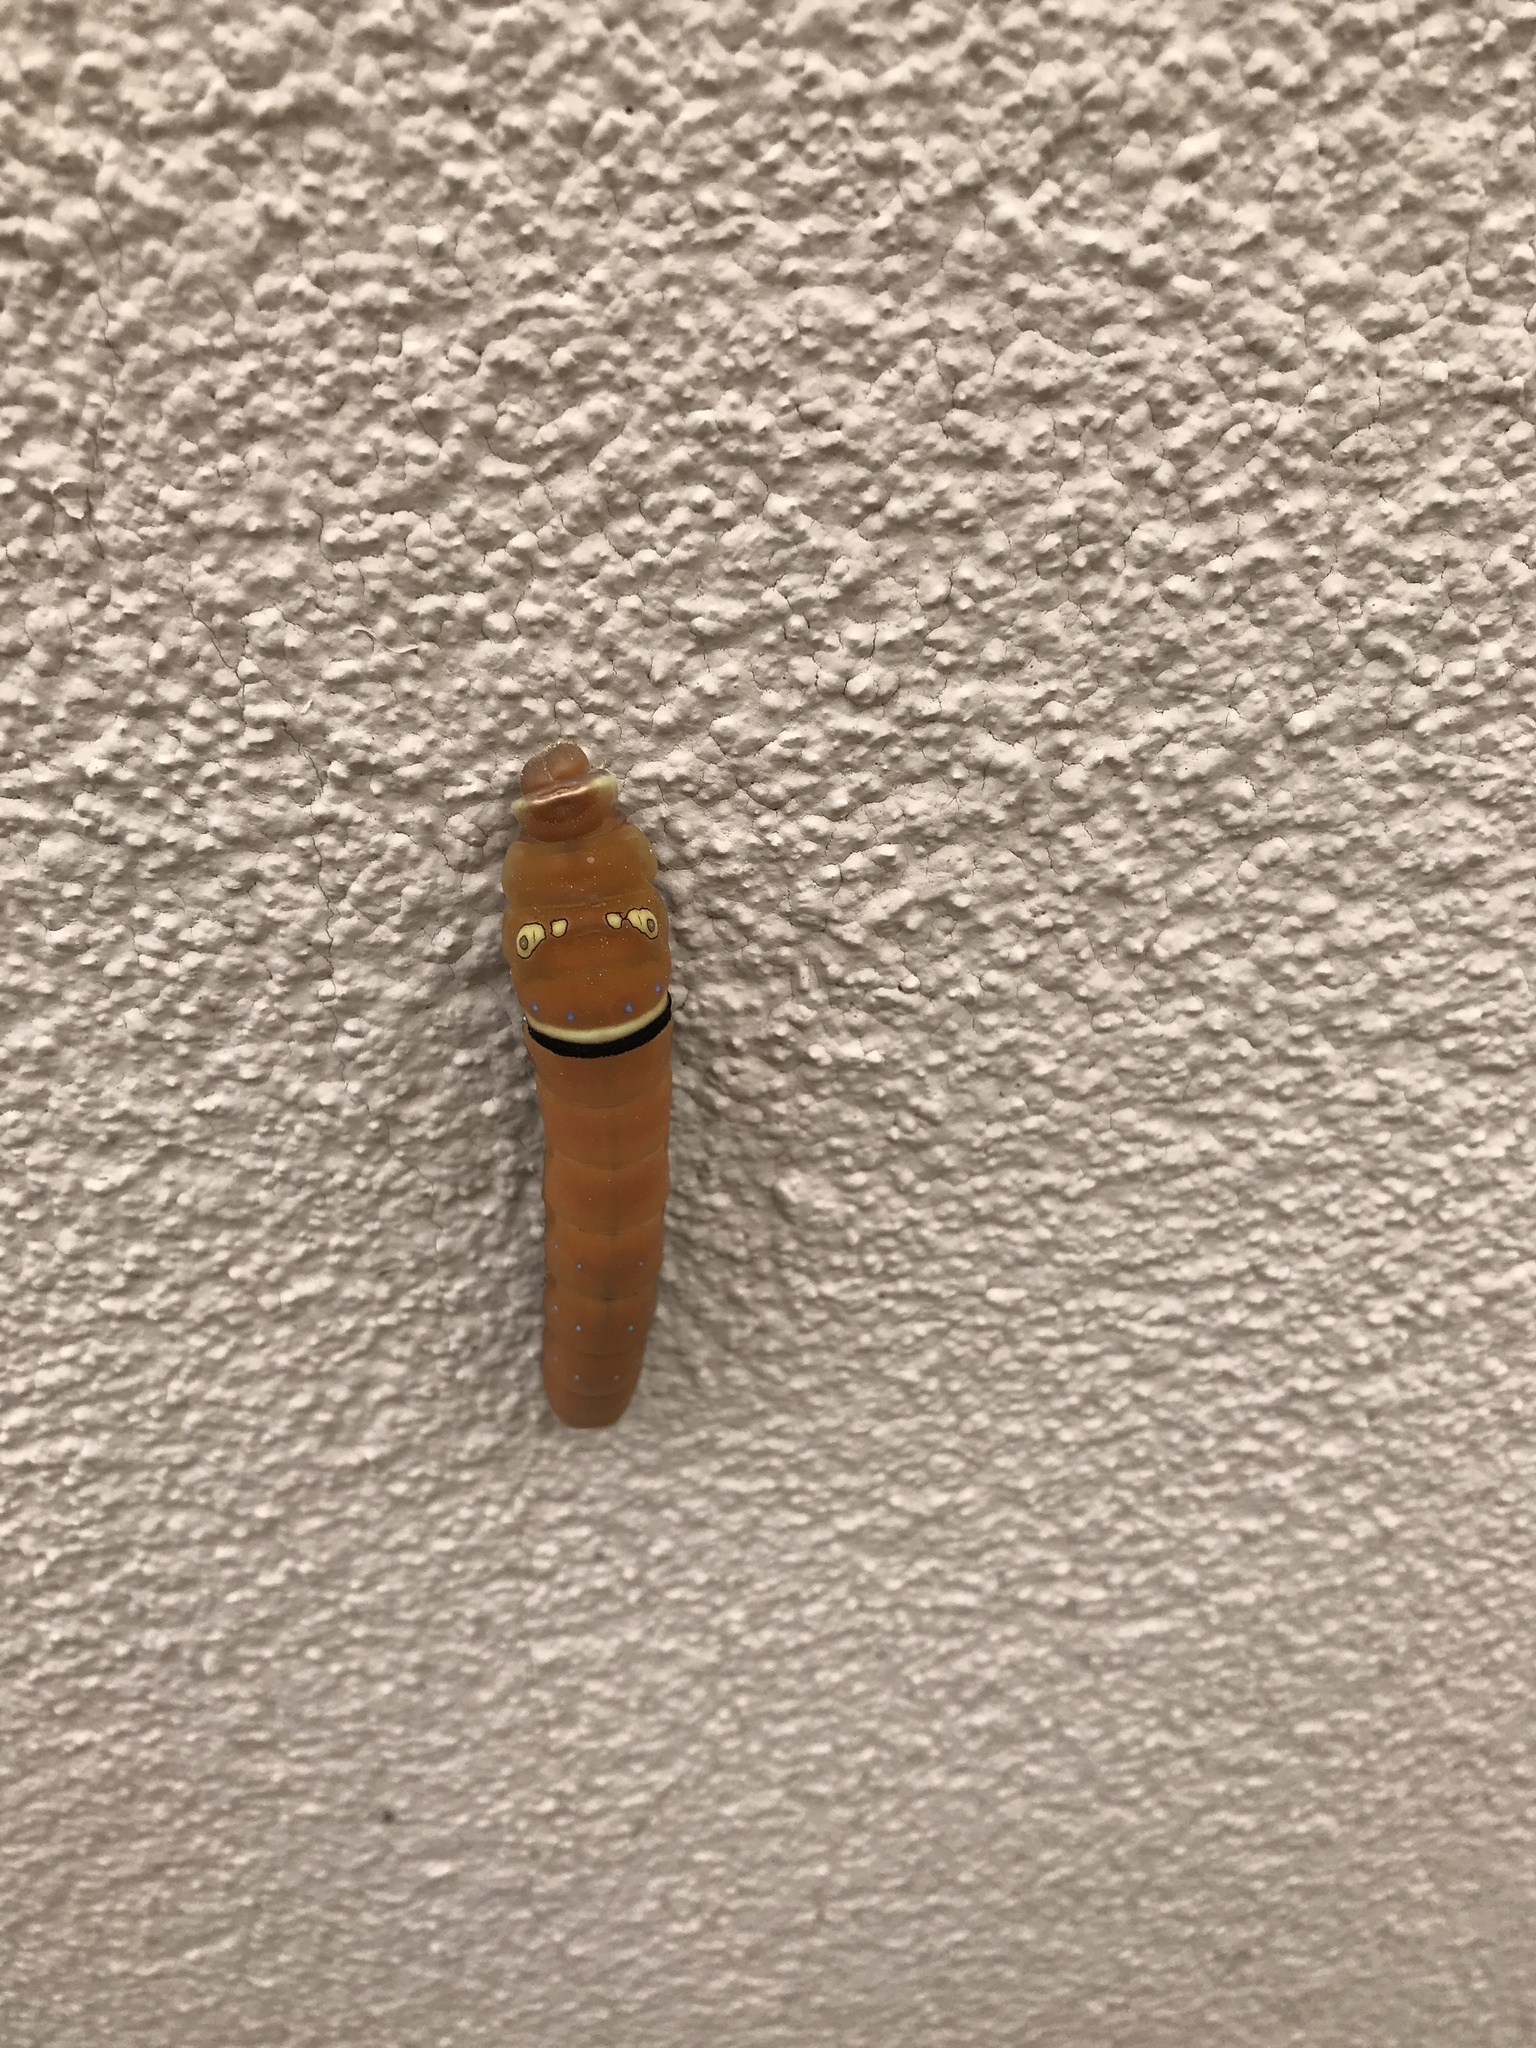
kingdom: Animalia
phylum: Arthropoda
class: Insecta
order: Lepidoptera
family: Papilionidae
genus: Papilio
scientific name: Papilio multicaudata
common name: Two-tailed tiger swallowtail
